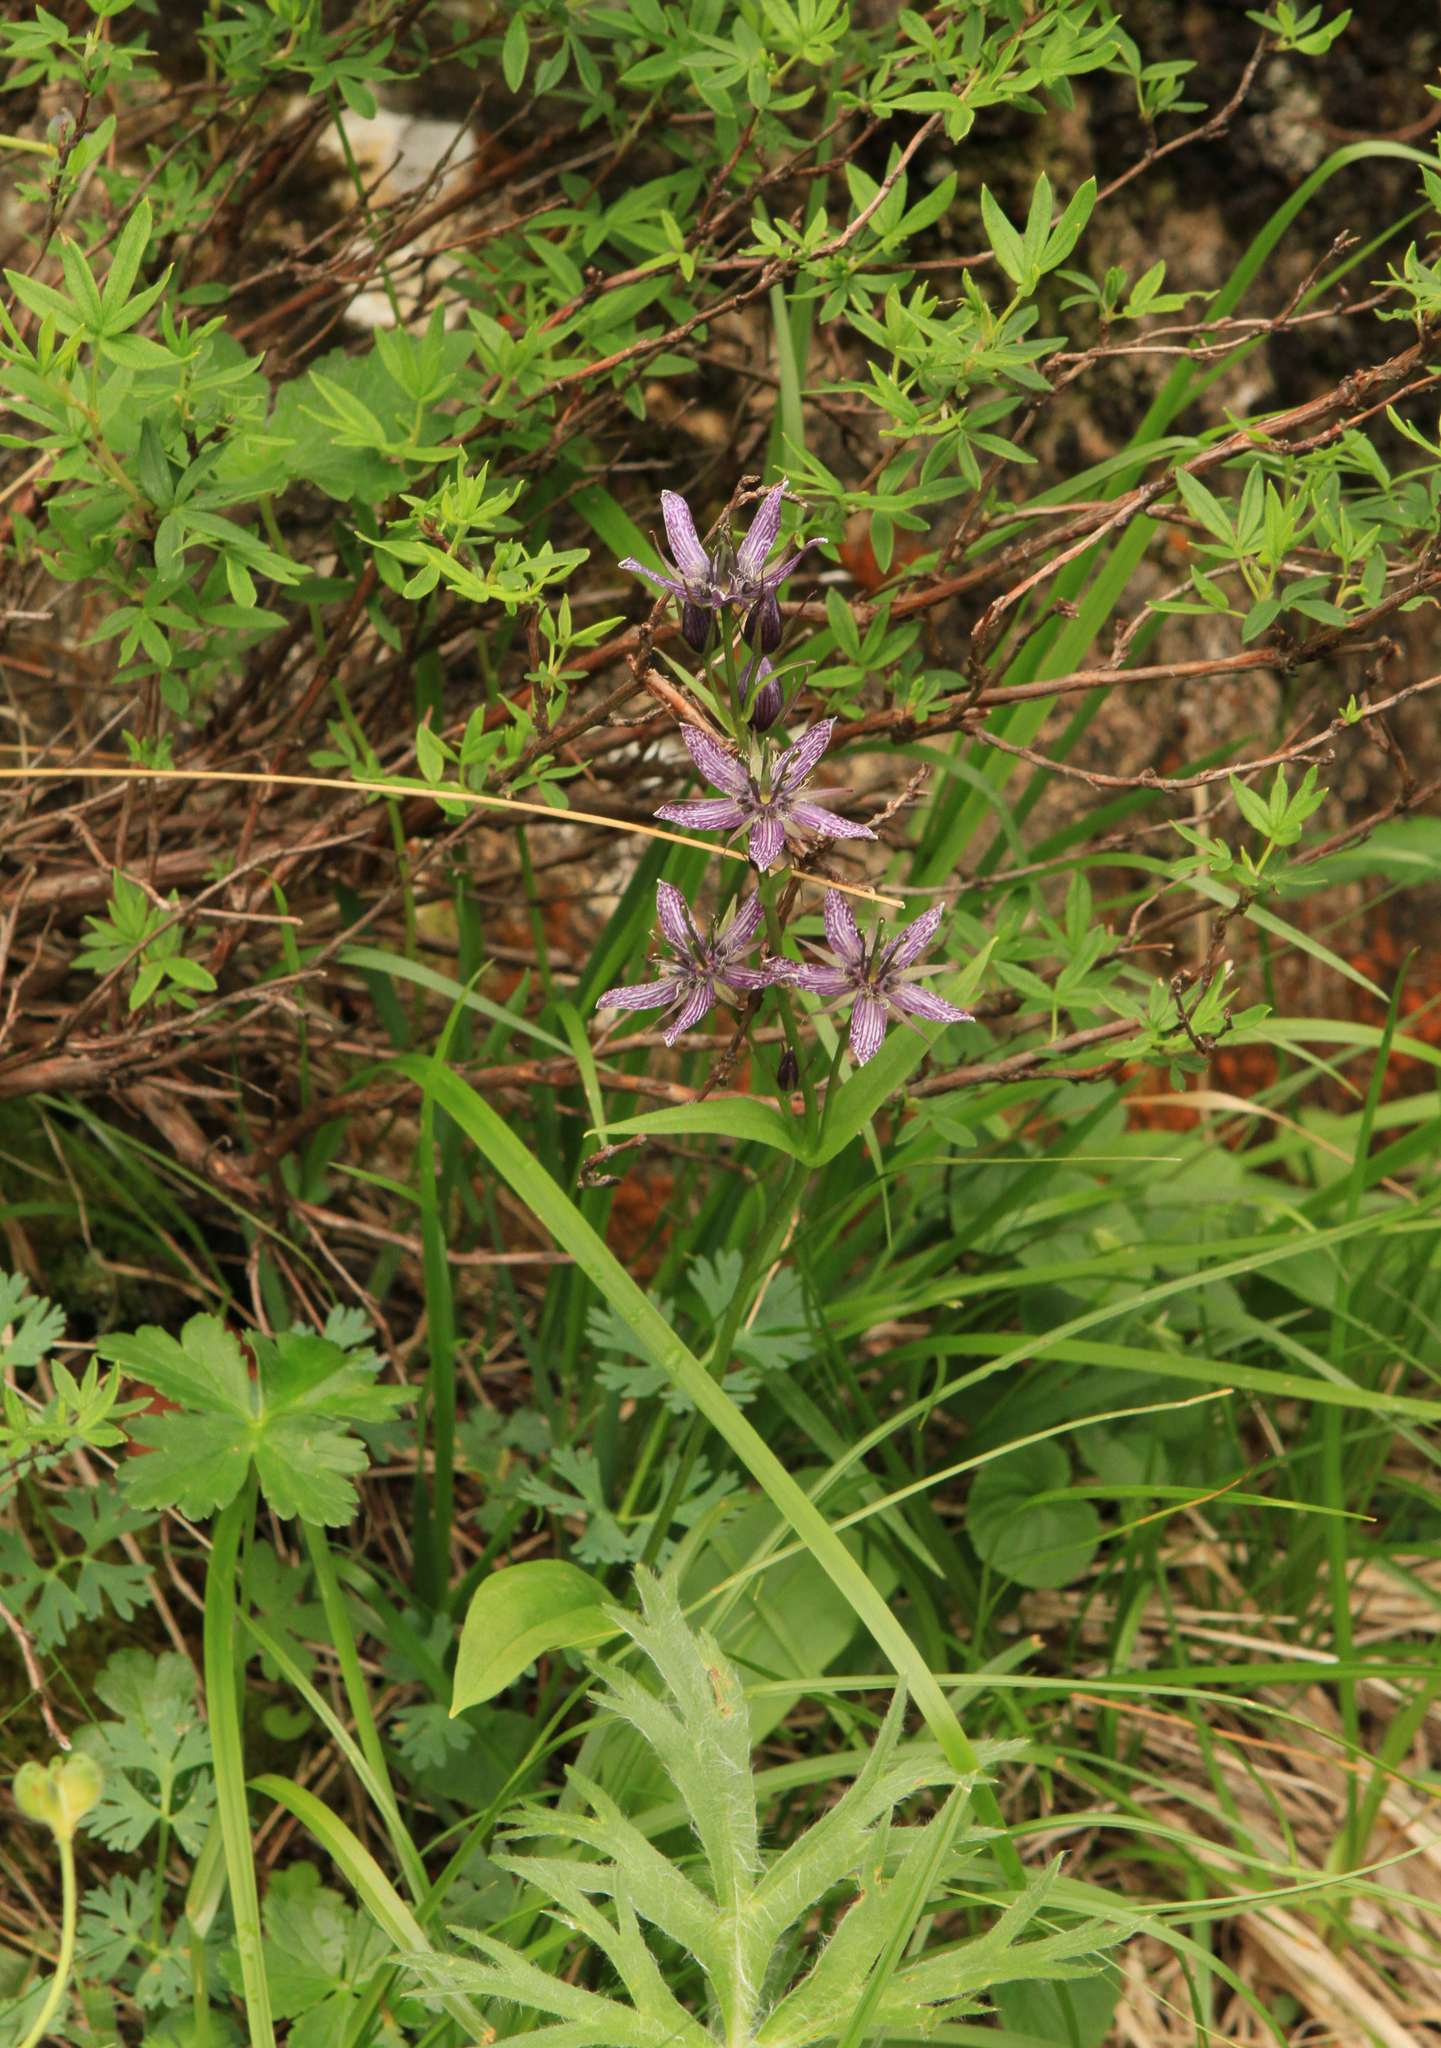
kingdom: Plantae
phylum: Tracheophyta
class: Magnoliopsida
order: Gentianales
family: Gentianaceae
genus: Swertia
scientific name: Swertia obtusa
